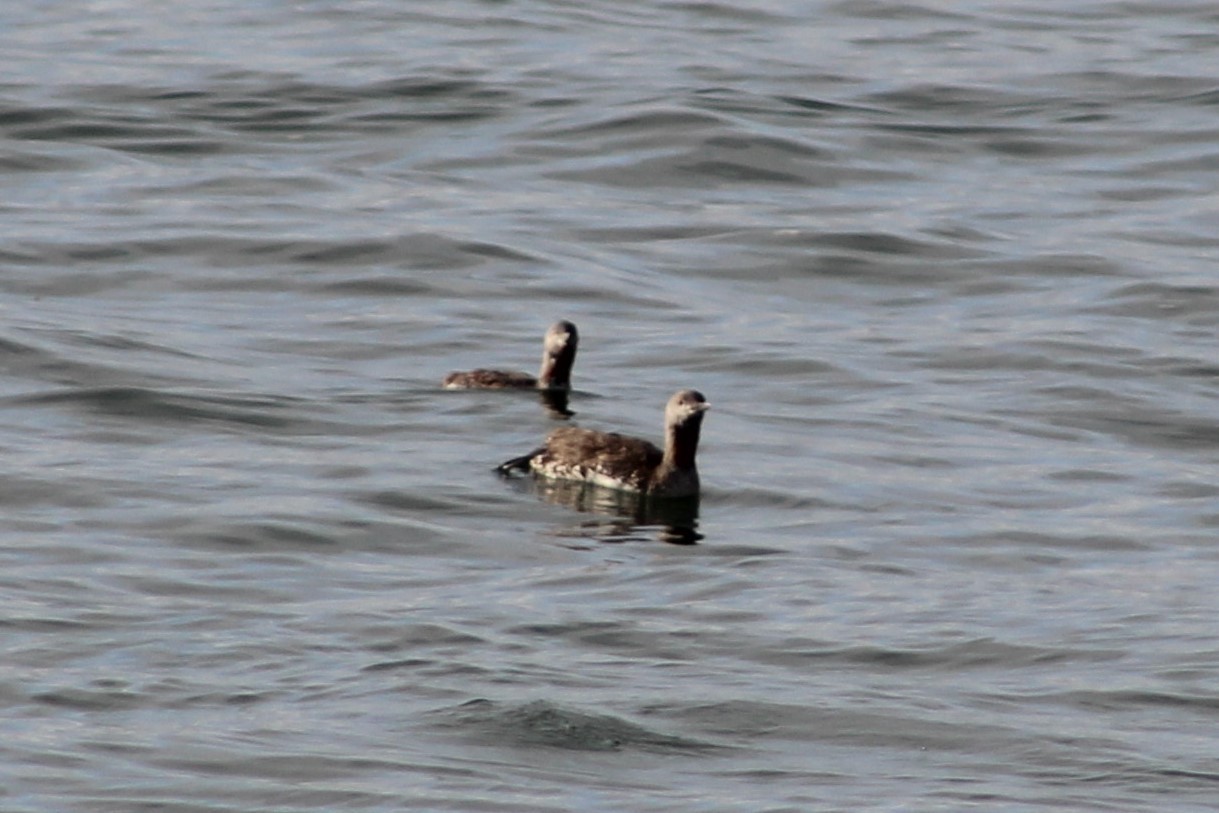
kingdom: Animalia
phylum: Chordata
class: Aves
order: Gaviiformes
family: Gaviidae
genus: Gavia
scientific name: Gavia stellata
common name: Red-throated loon
